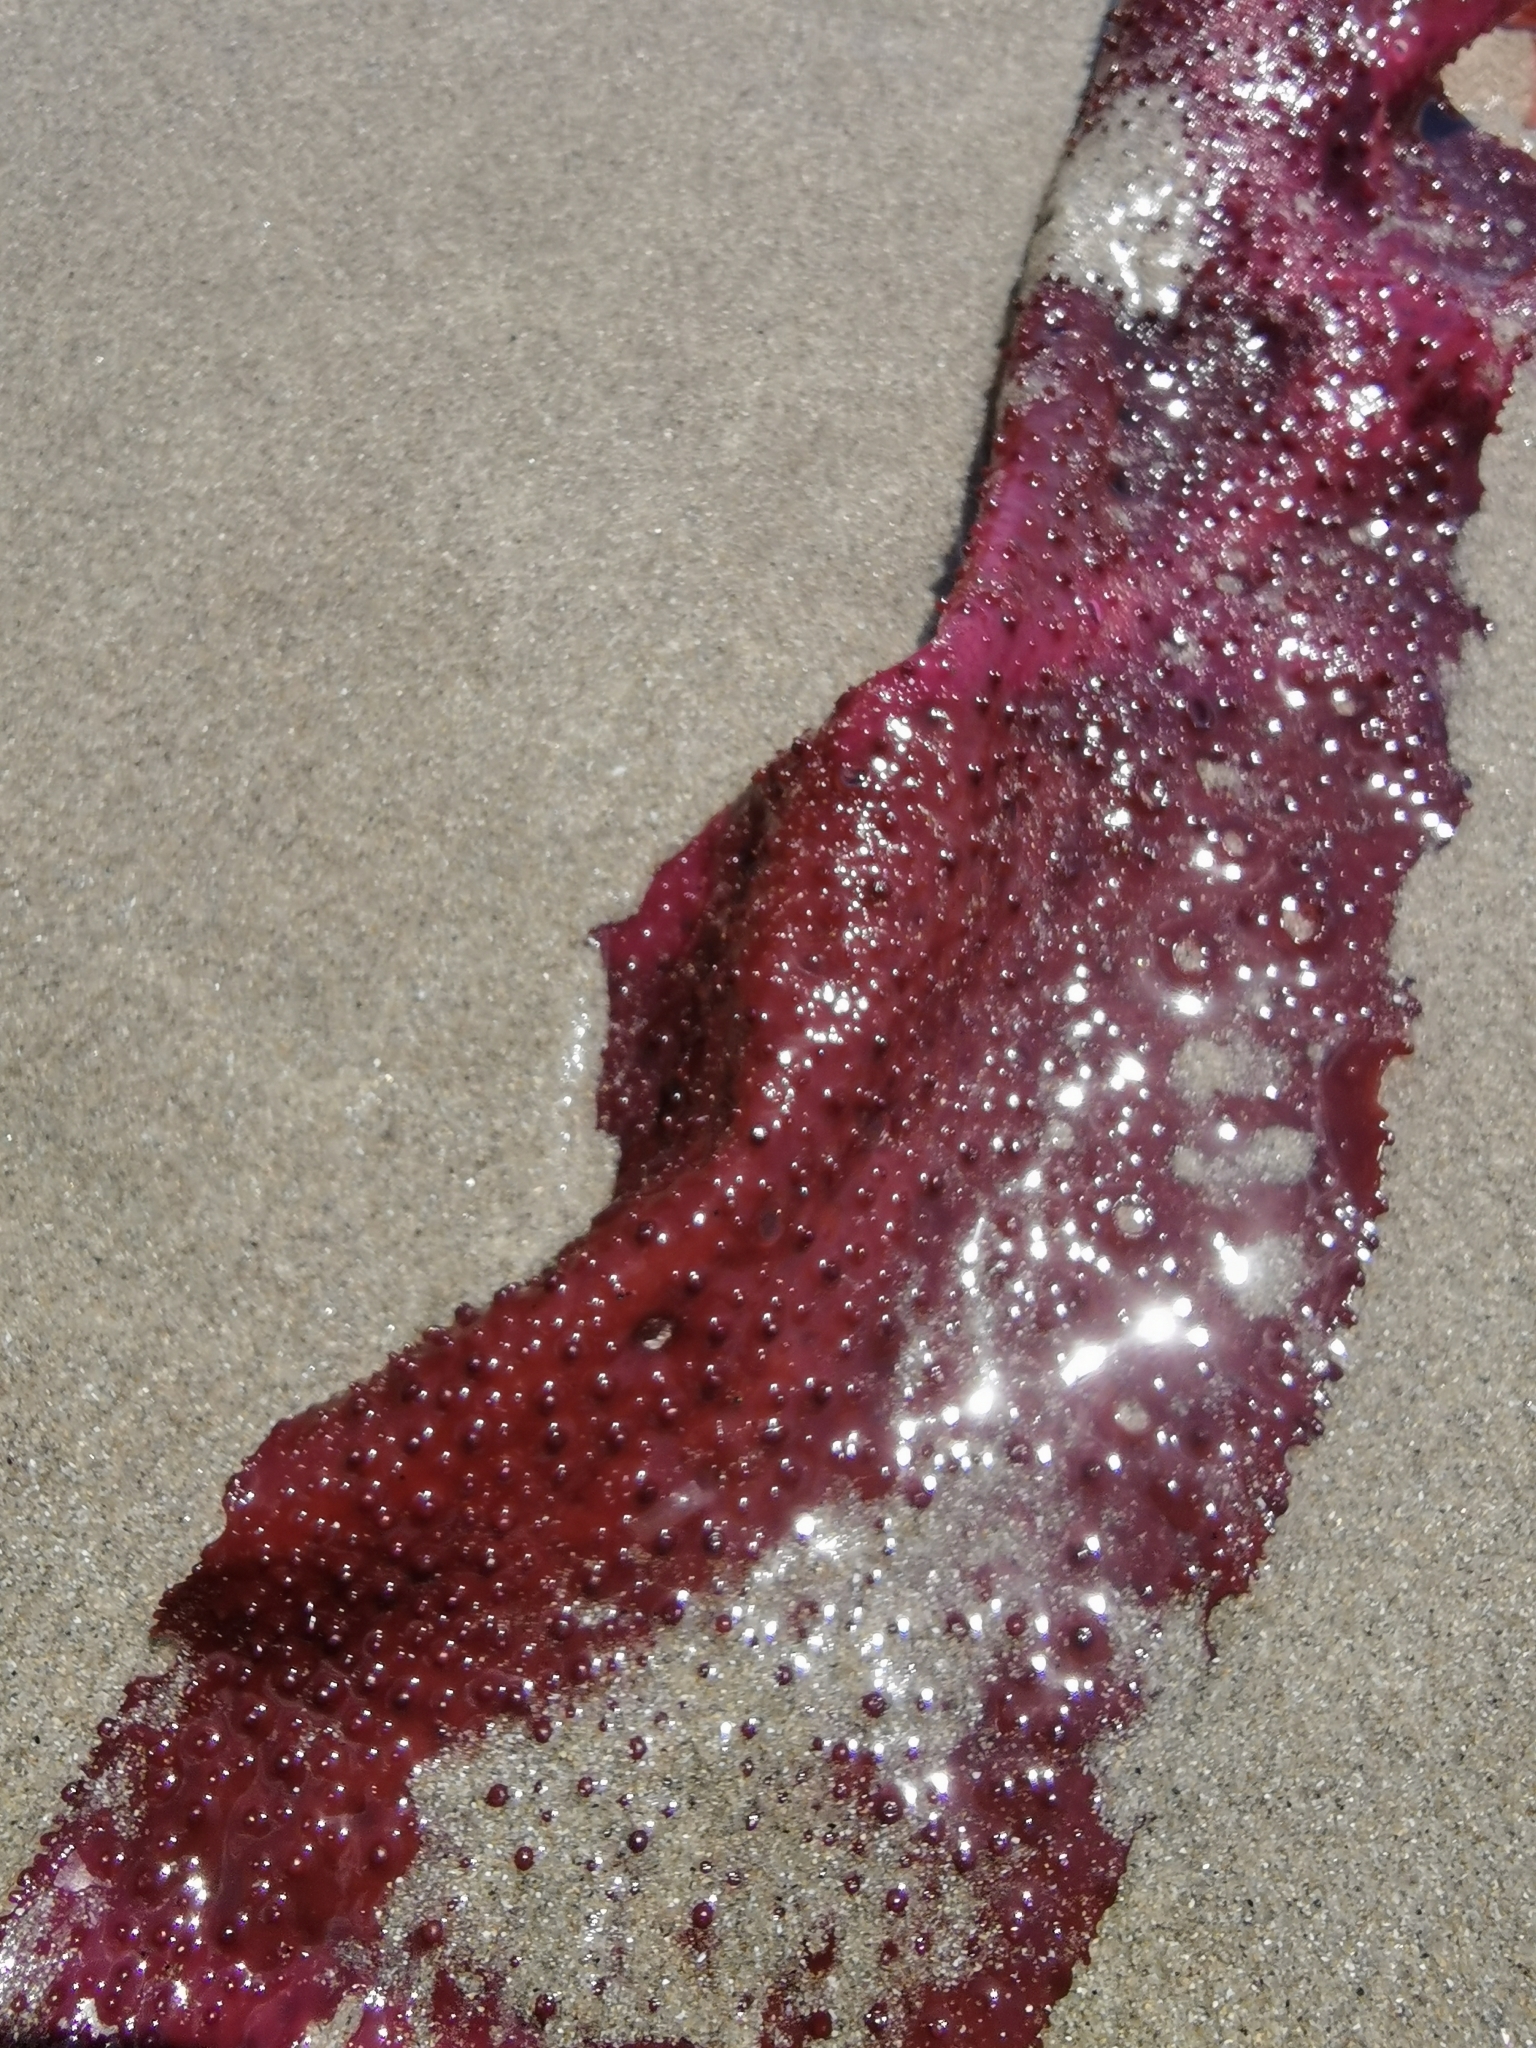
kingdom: Plantae
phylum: Rhodophyta
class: Florideophyceae
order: Gigartinales
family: Gigartinaceae
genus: Sarcothalia
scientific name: Sarcothalia
